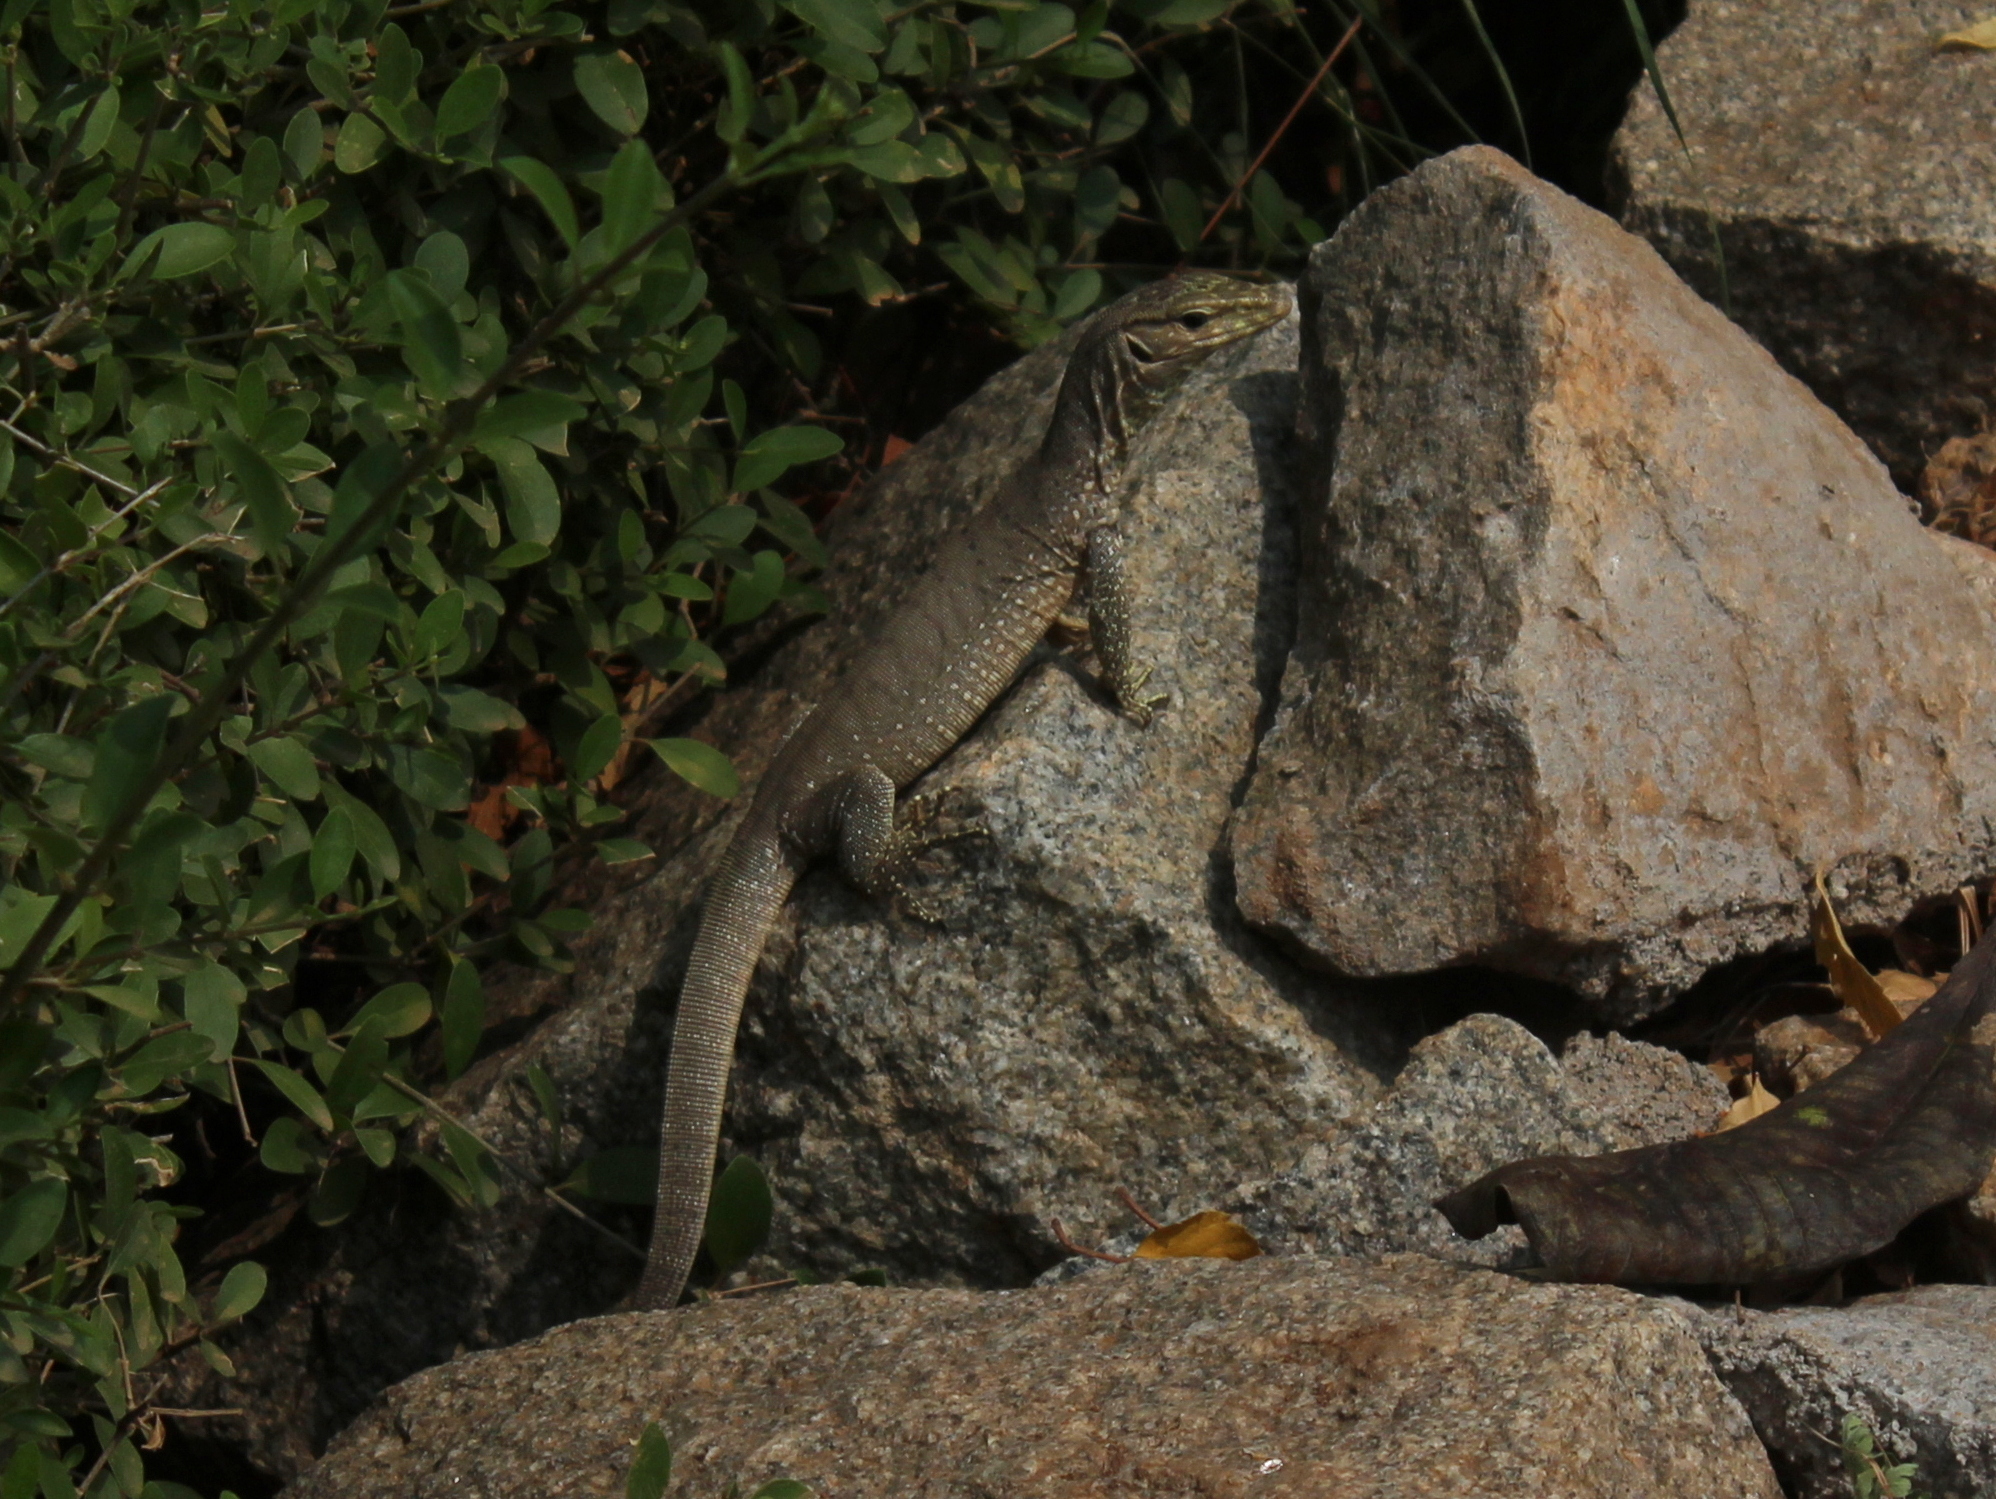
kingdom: Animalia
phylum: Chordata
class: Squamata
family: Varanidae
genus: Varanus
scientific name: Varanus bengalensis
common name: Bengal monitor
